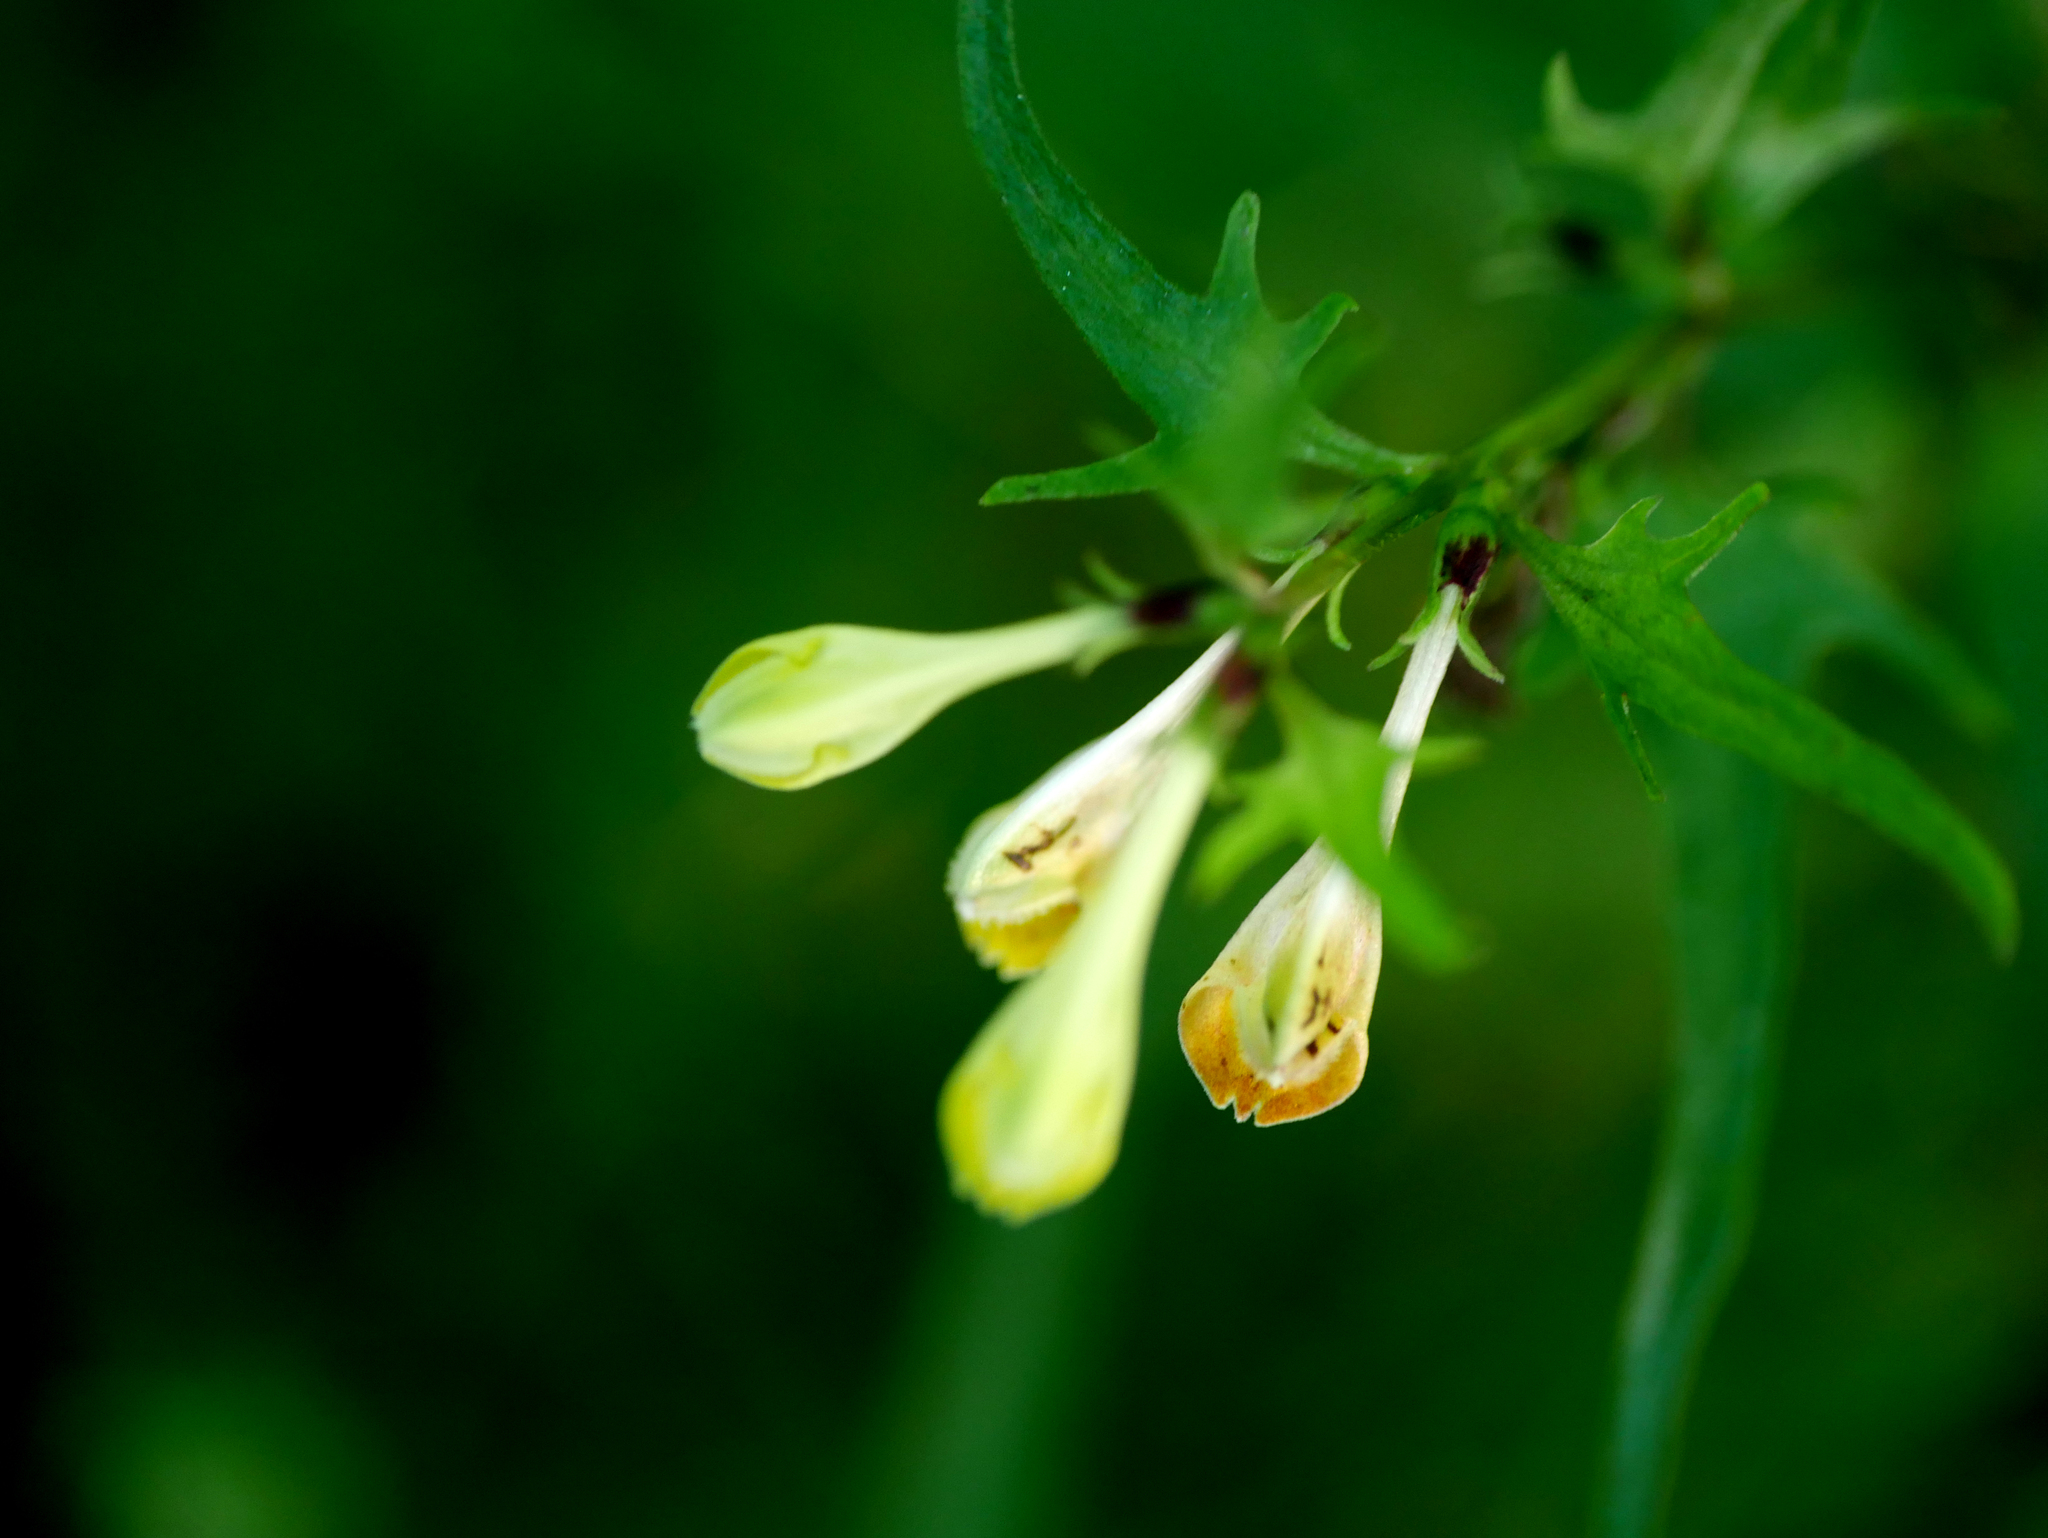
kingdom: Plantae
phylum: Tracheophyta
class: Magnoliopsida
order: Lamiales
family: Orobanchaceae
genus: Melampyrum
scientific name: Melampyrum pratense
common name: Common cow-wheat
